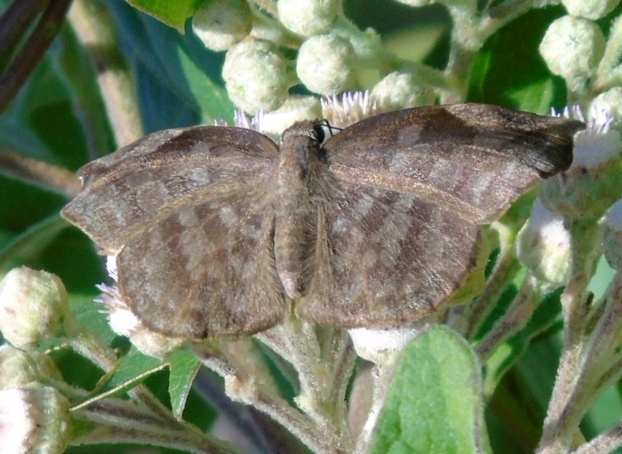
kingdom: Animalia
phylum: Arthropoda
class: Insecta
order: Lepidoptera
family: Hesperiidae
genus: Achlyodes
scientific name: Achlyodes thraso
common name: Sickle-winged skipper
